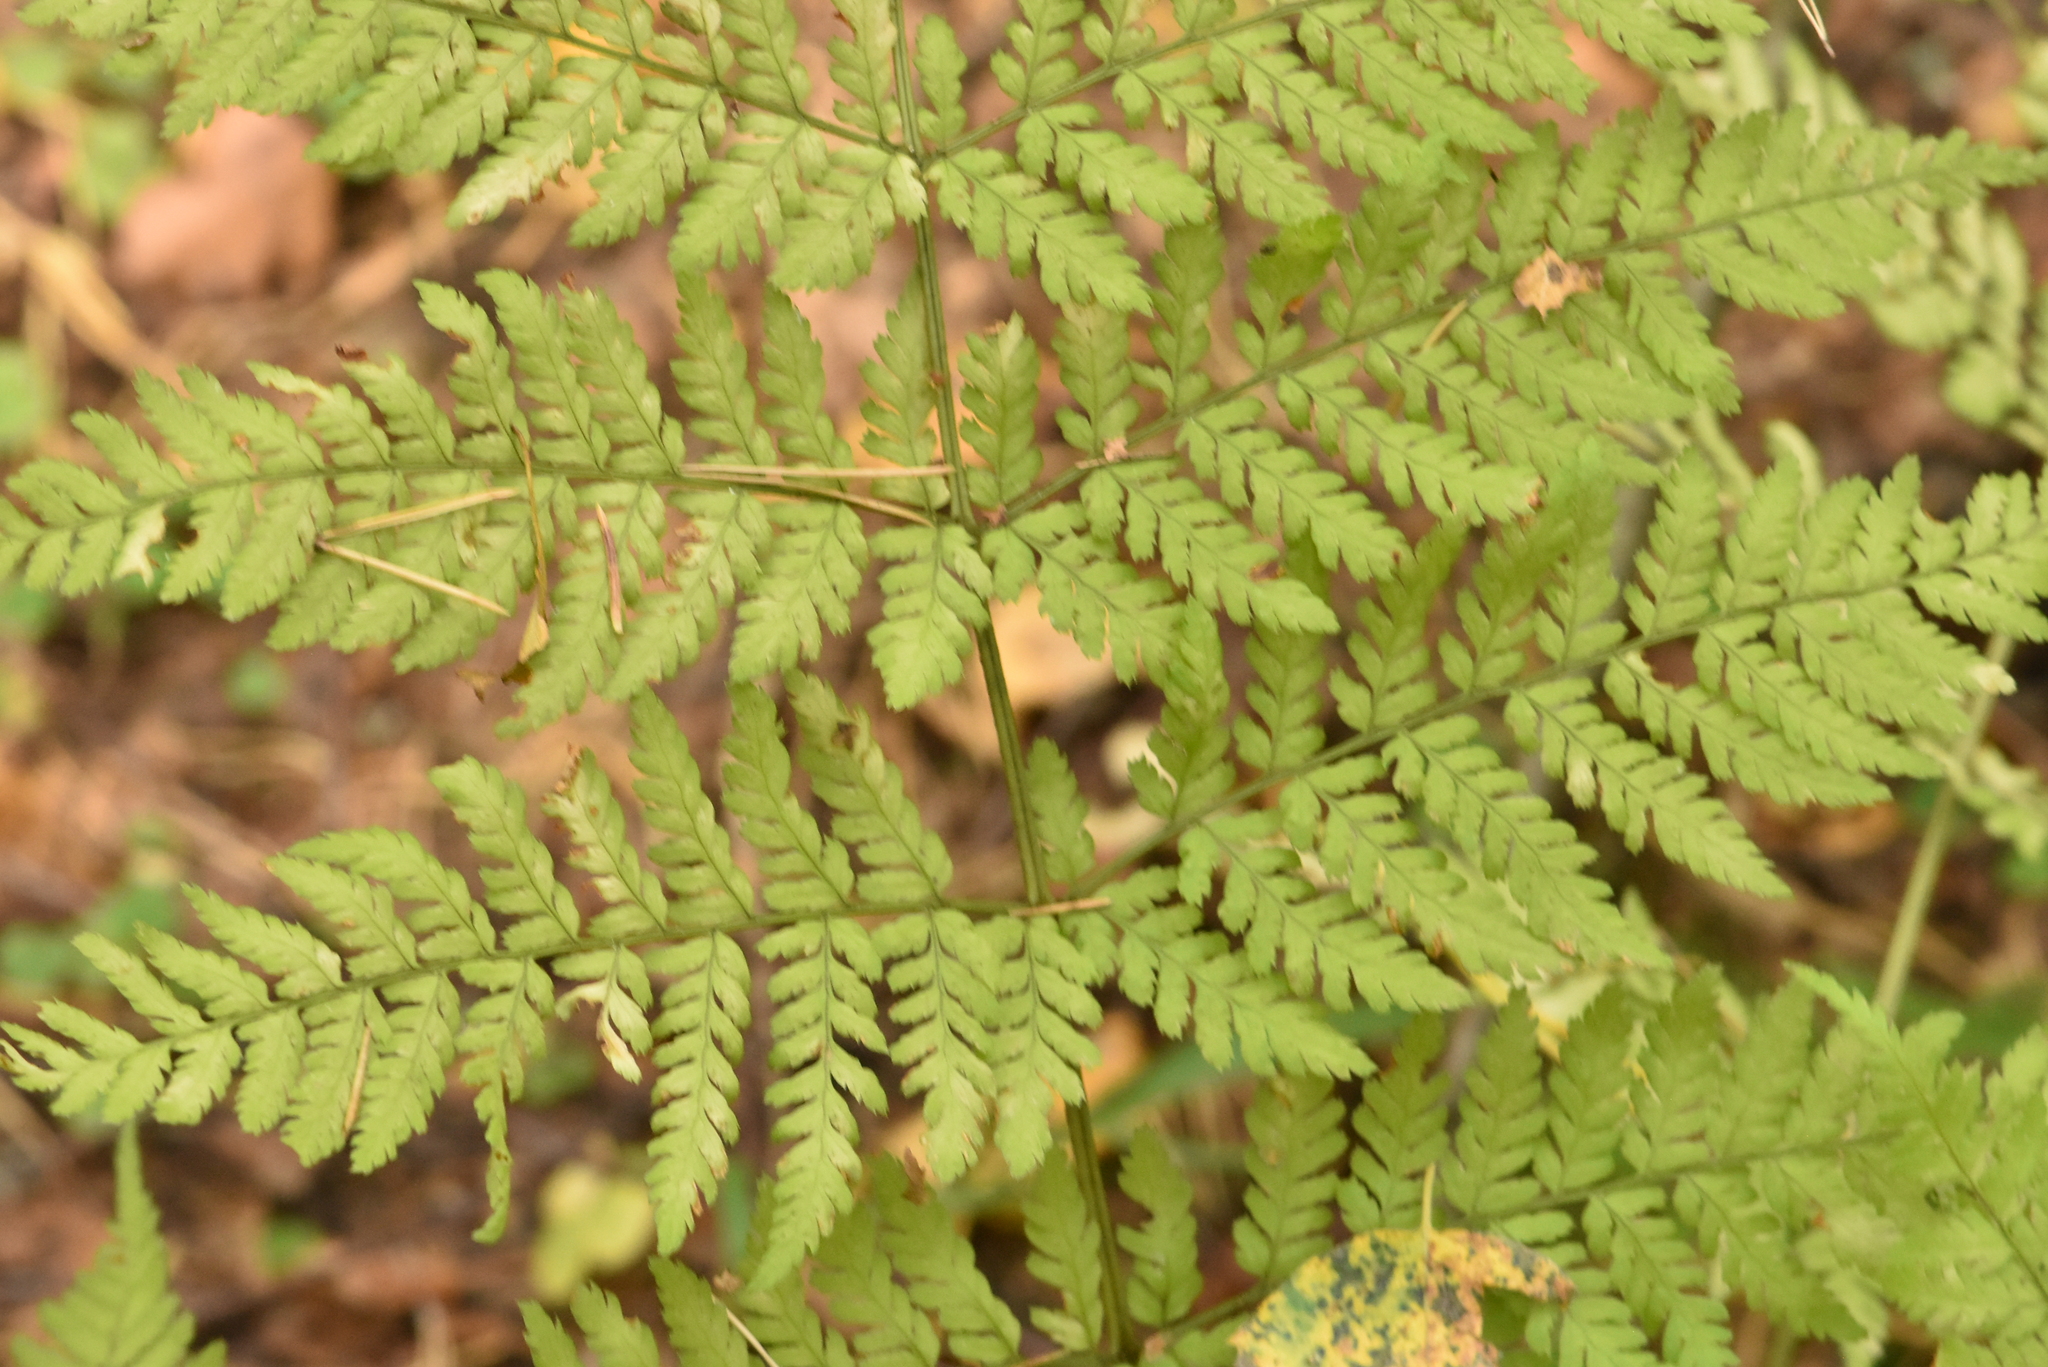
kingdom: Plantae
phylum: Tracheophyta
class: Polypodiopsida
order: Polypodiales
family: Dryopteridaceae
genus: Dryopteris
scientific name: Dryopteris expansa
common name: Northern buckler fern
